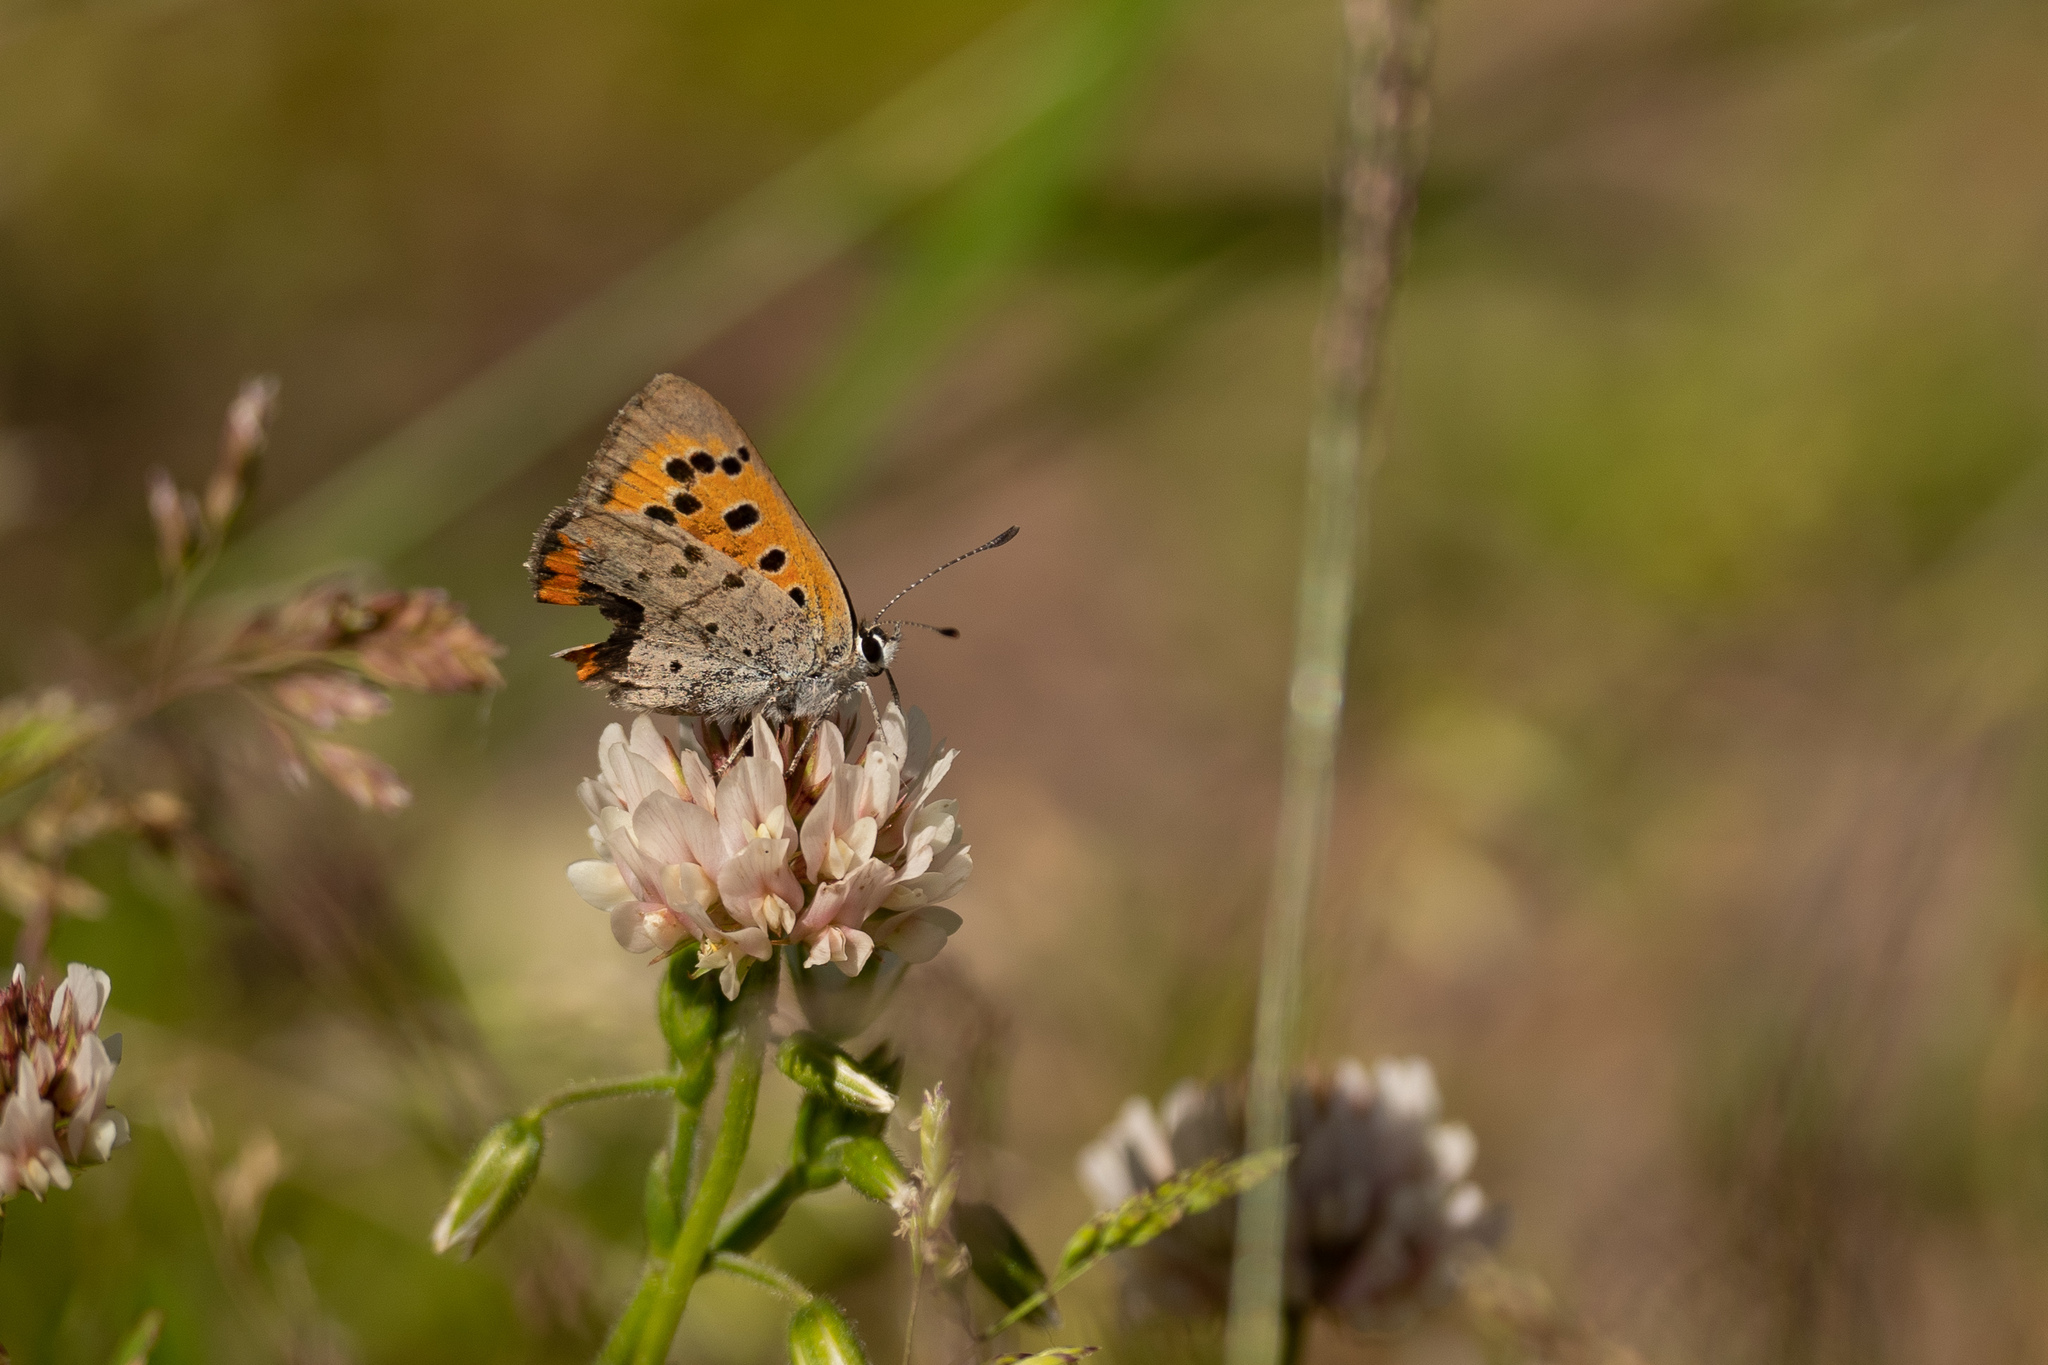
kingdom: Animalia
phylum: Arthropoda
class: Insecta
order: Lepidoptera
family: Lycaenidae
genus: Lycaena
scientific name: Lycaena phlaeas
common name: Small copper
